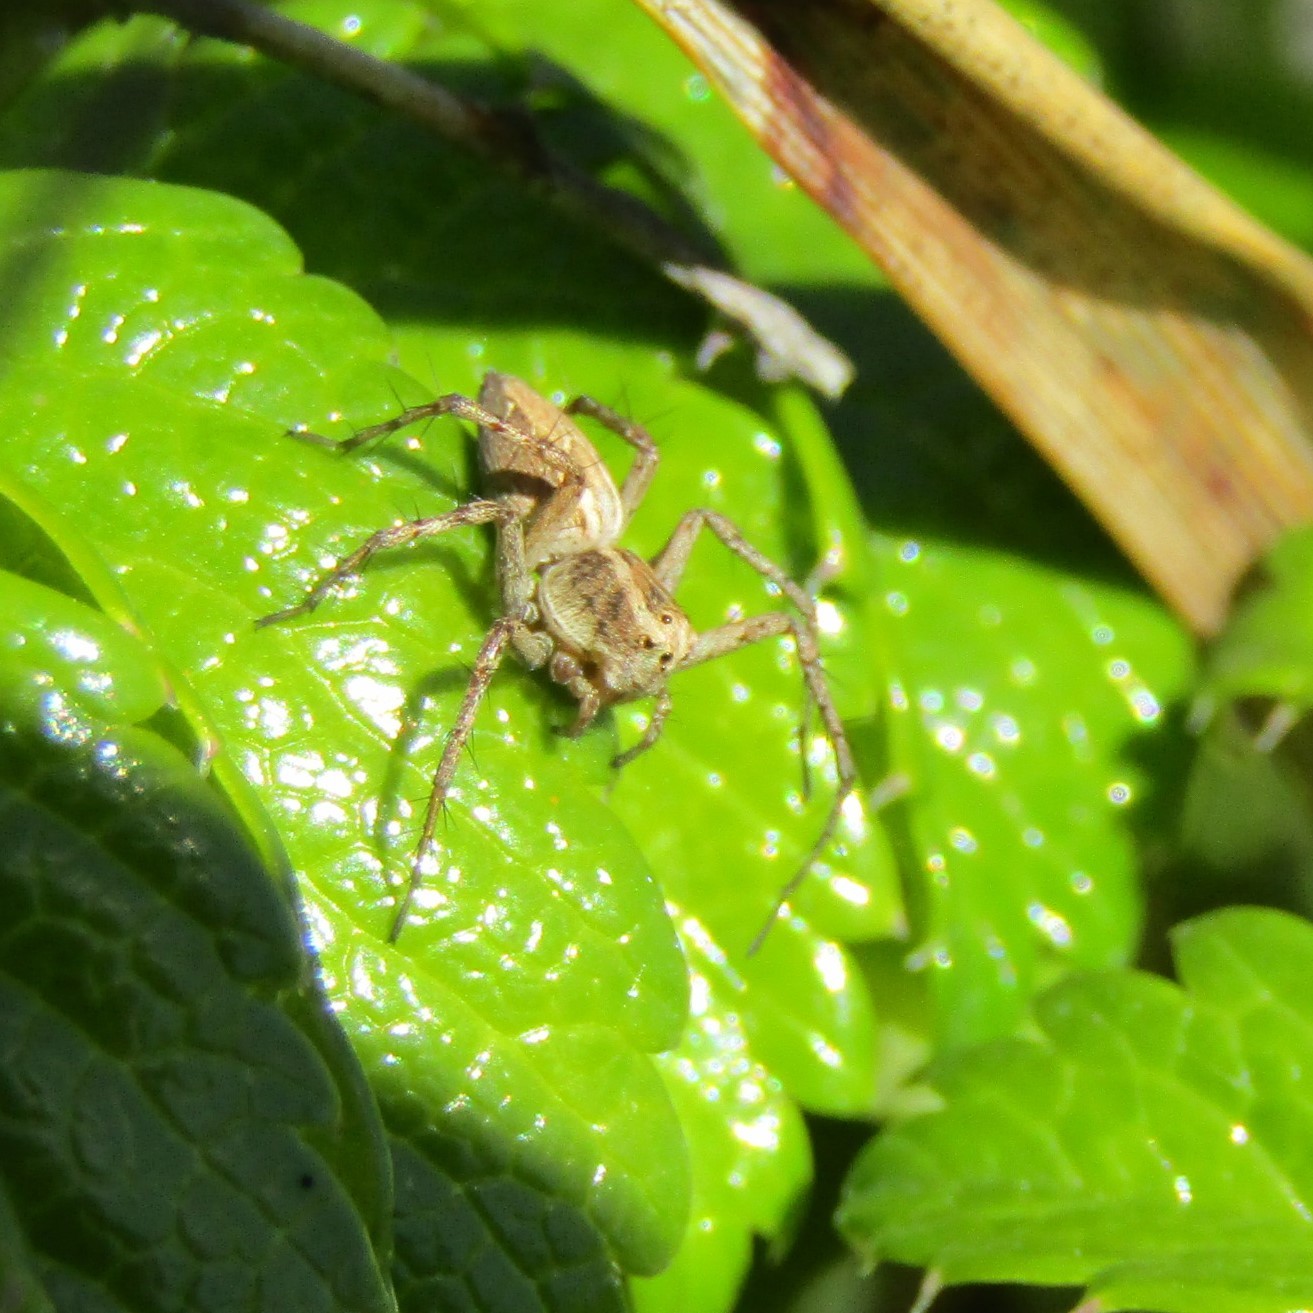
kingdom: Animalia
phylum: Arthropoda
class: Arachnida
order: Araneae
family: Oxyopidae
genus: Oxyopes
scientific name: Oxyopes gracilipes
